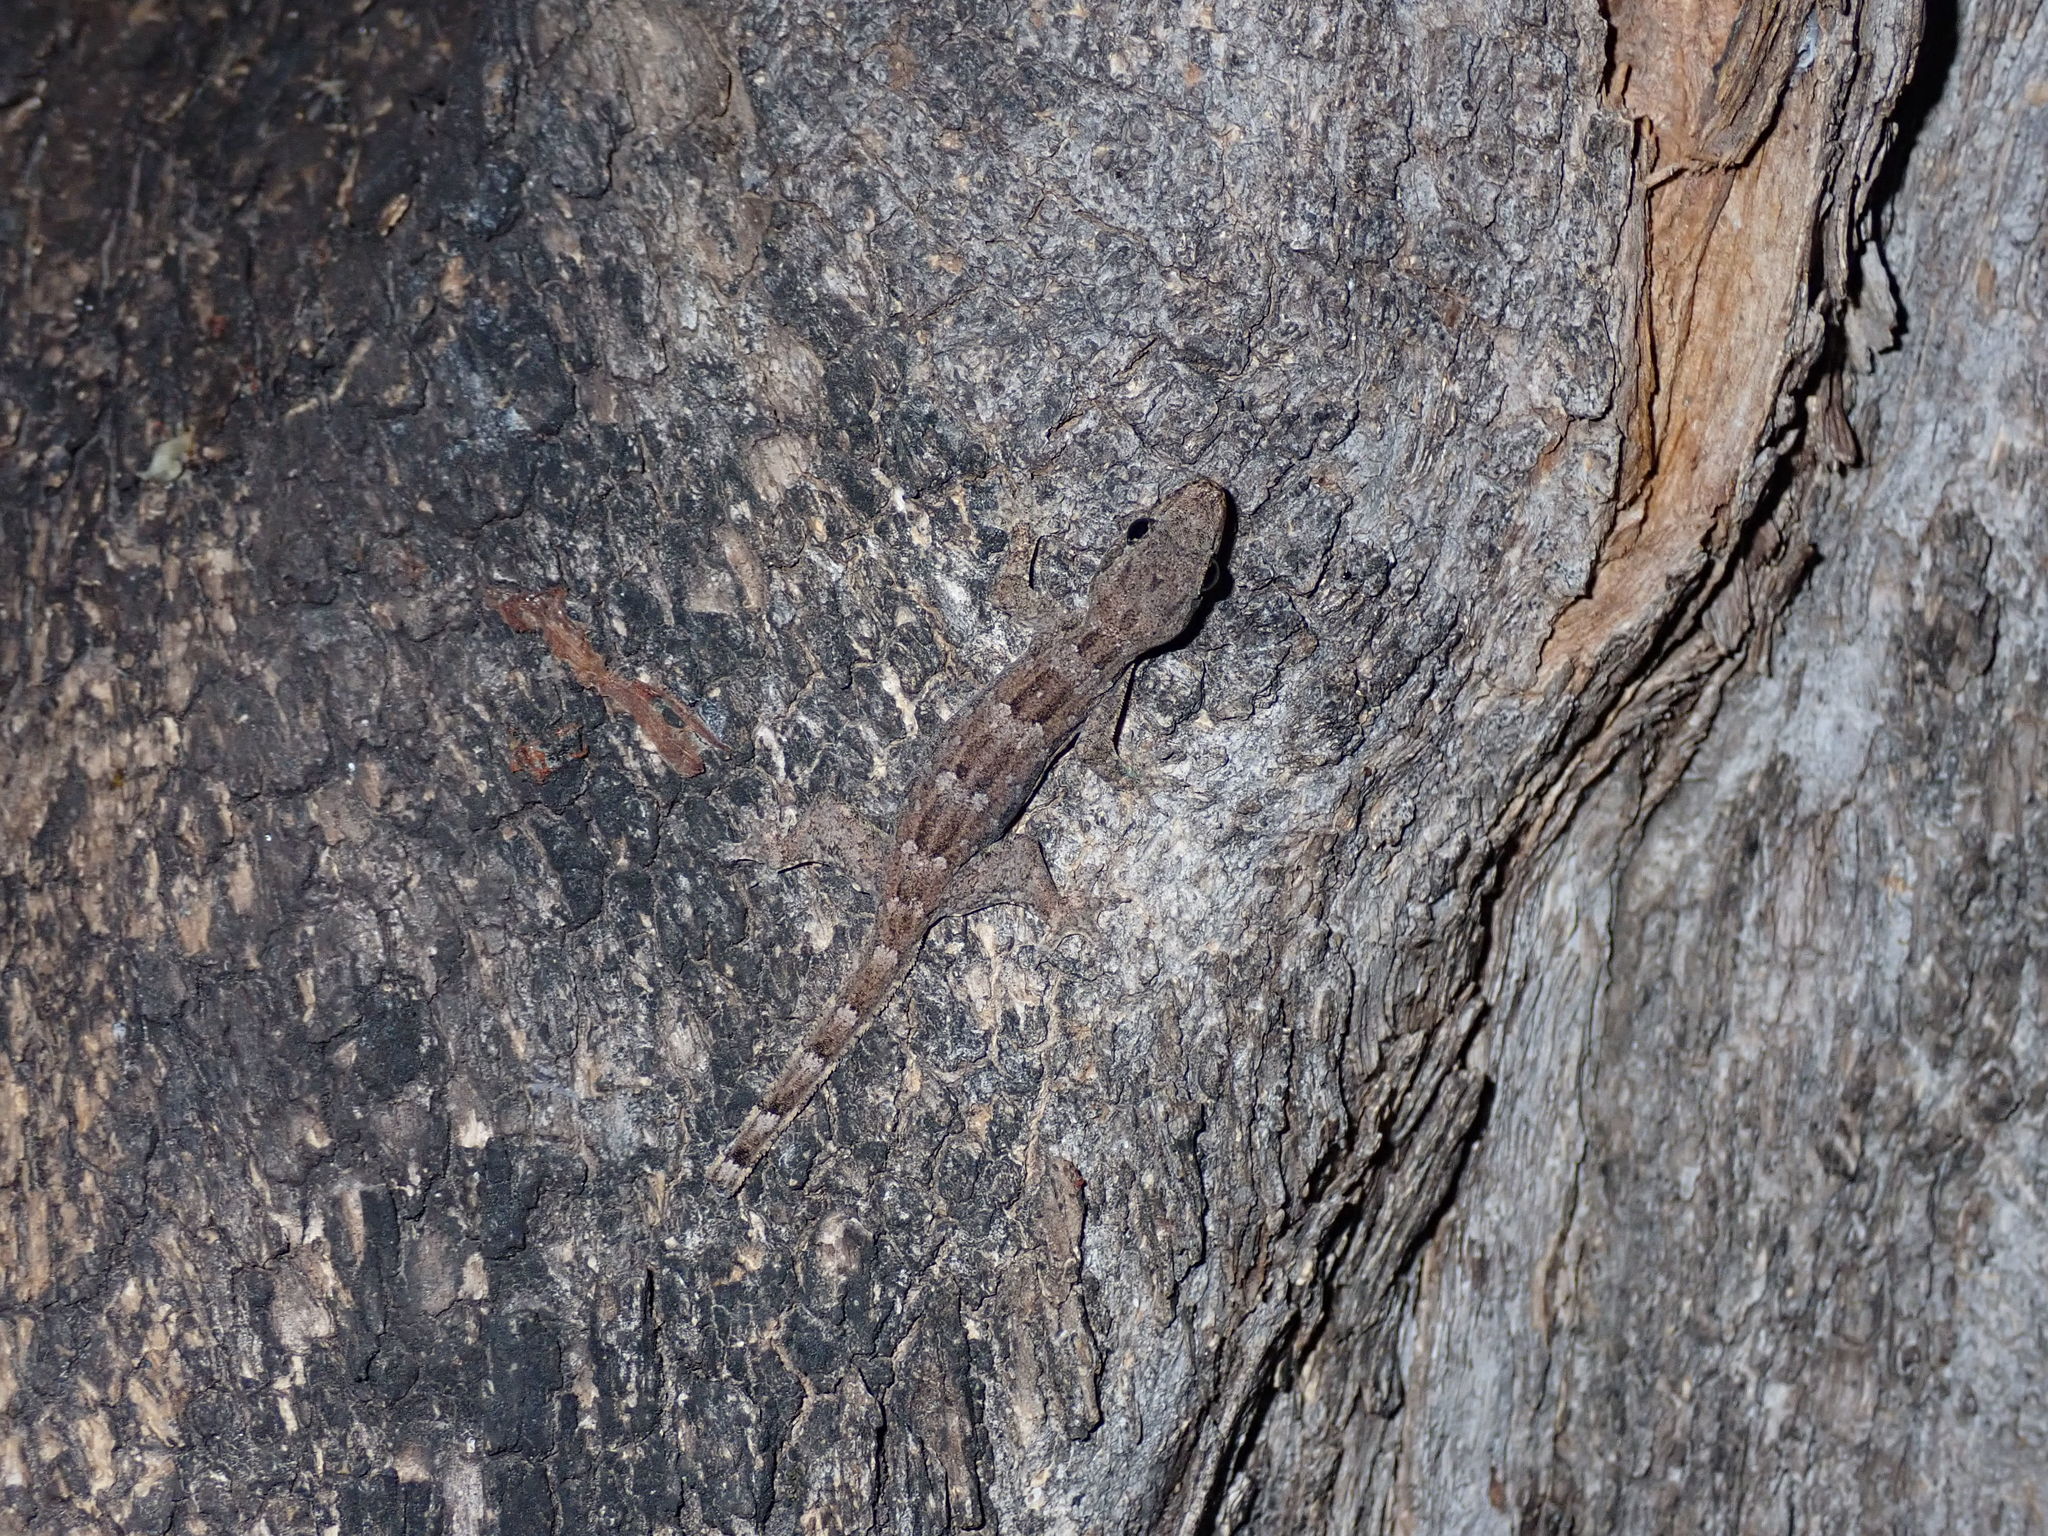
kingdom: Animalia
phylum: Chordata
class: Squamata
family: Gekkonidae
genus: Hemidactylus
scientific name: Hemidactylus platyurus
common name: Flat-tailed house gecko
